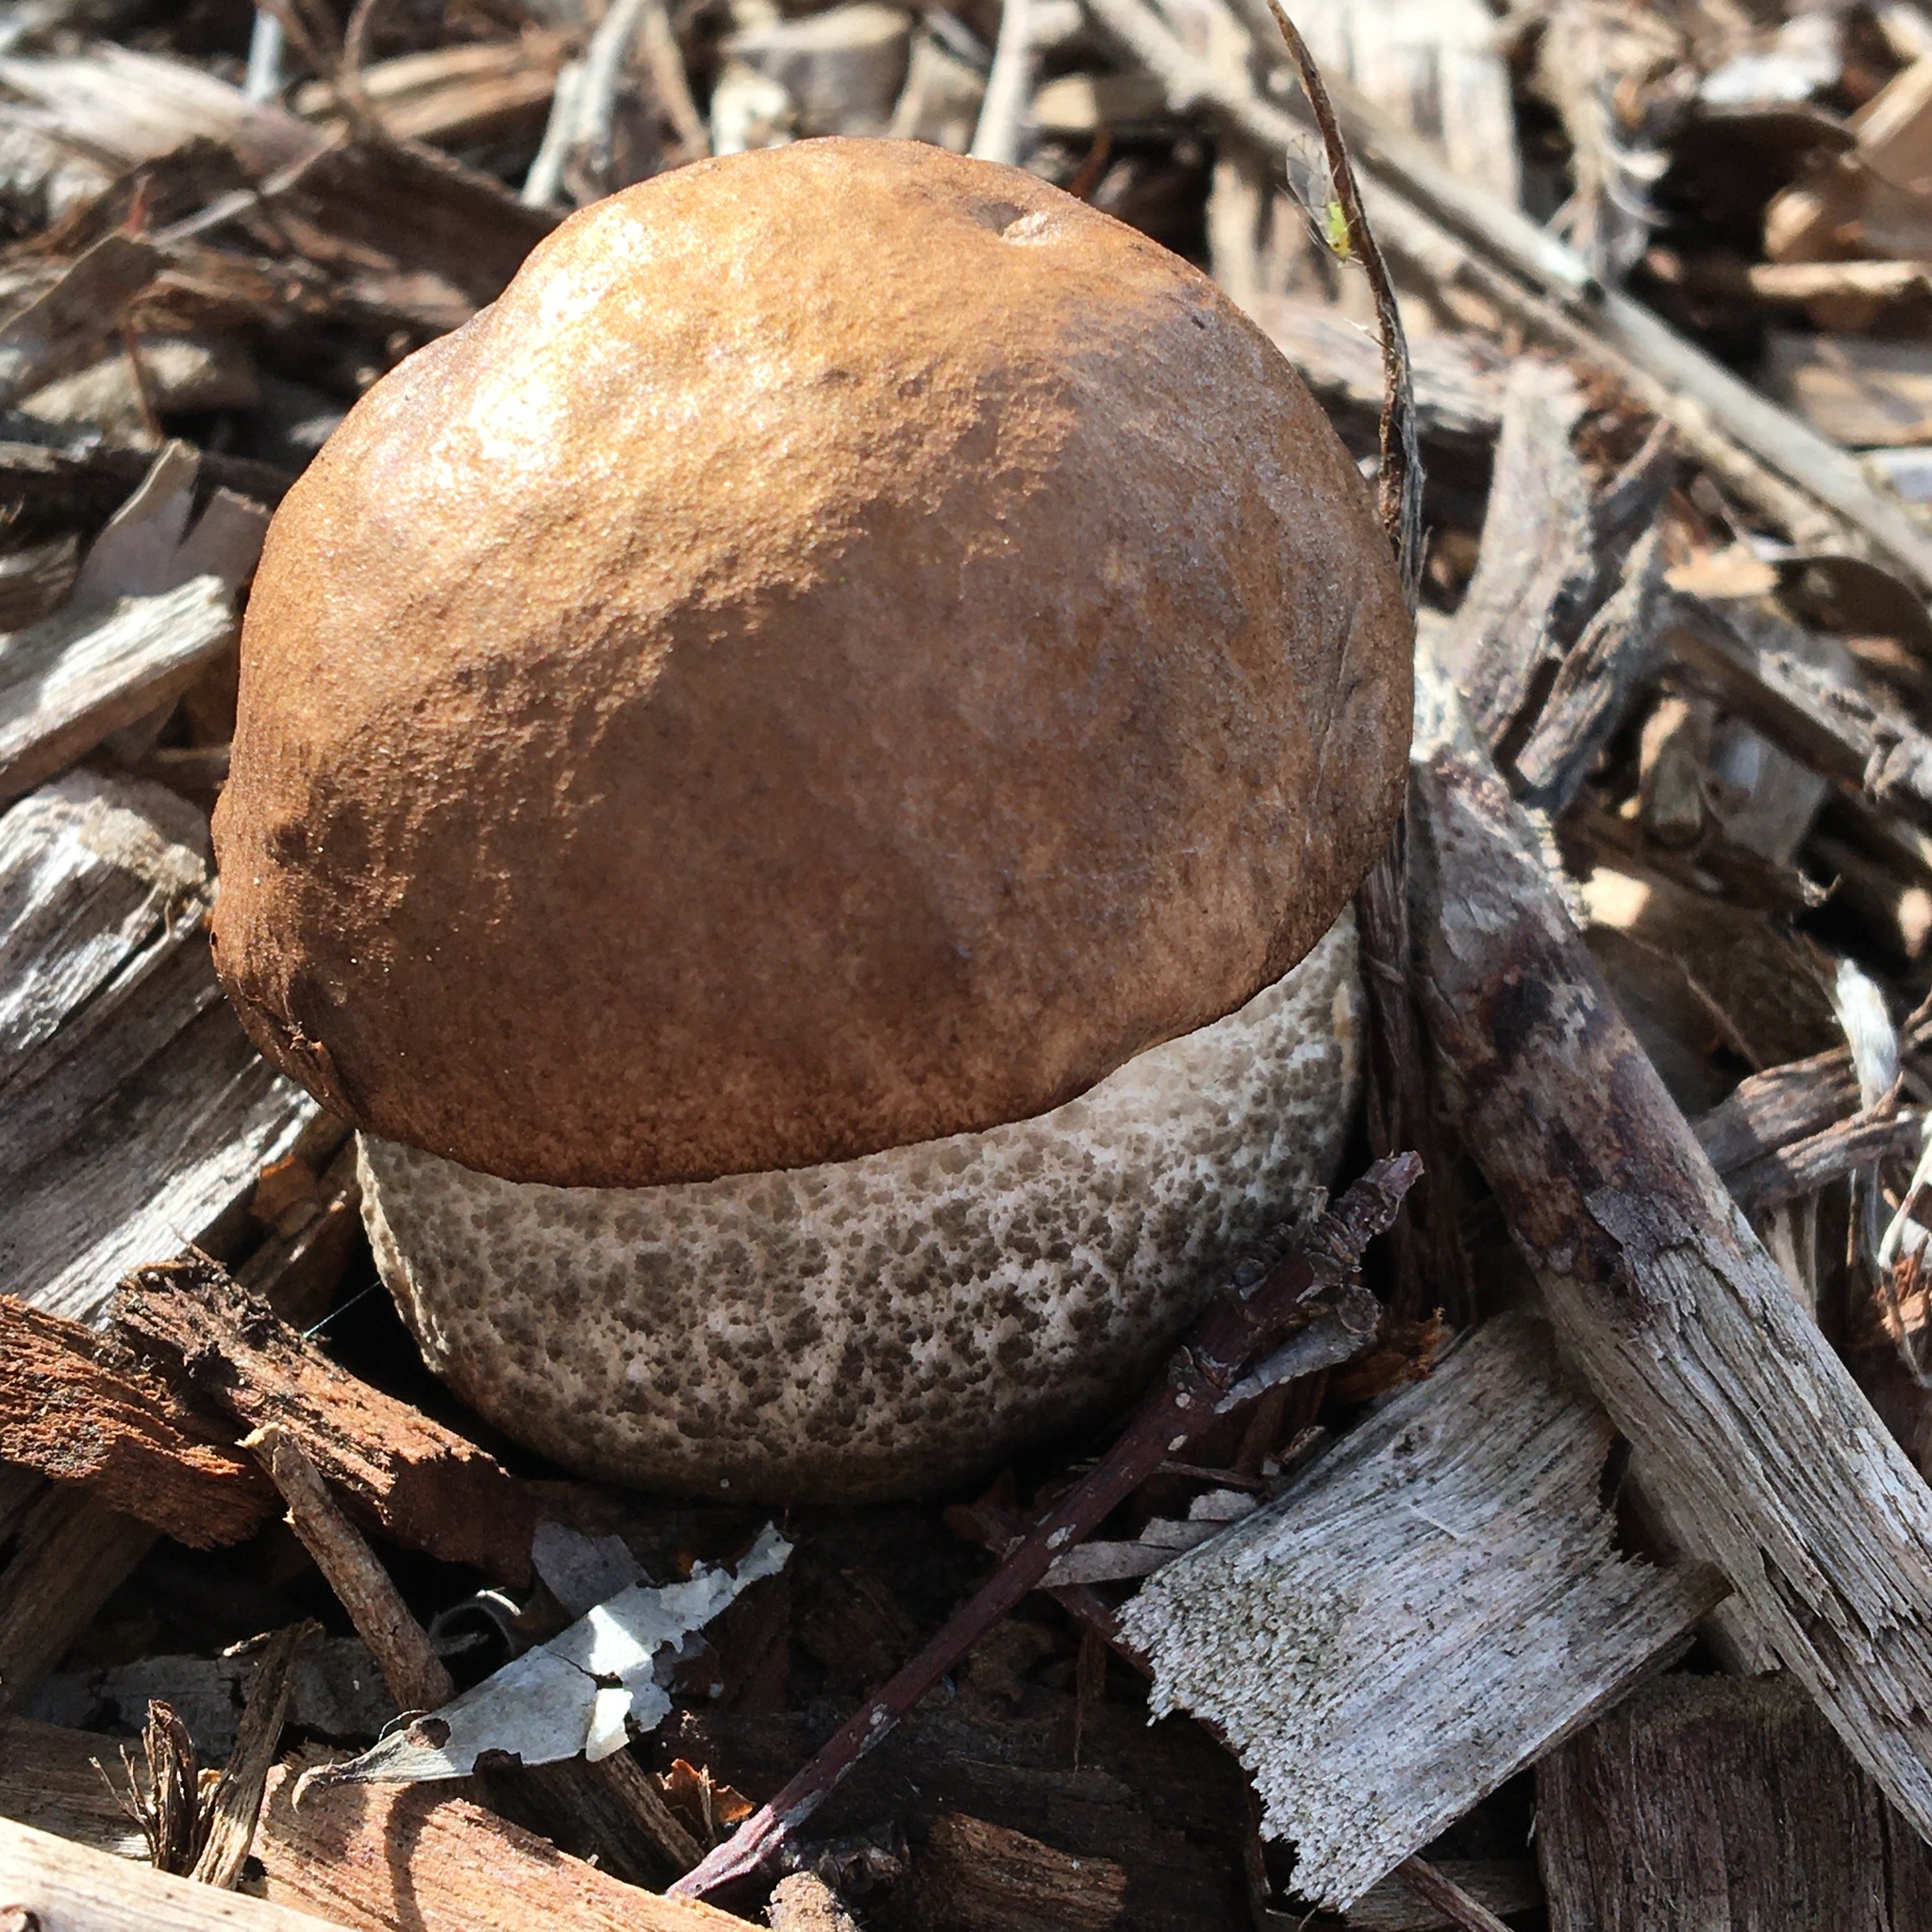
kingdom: Fungi
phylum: Basidiomycota
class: Agaricomycetes
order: Boletales
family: Boletaceae
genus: Leccinum
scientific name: Leccinum scabrum
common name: Blushing bolete
